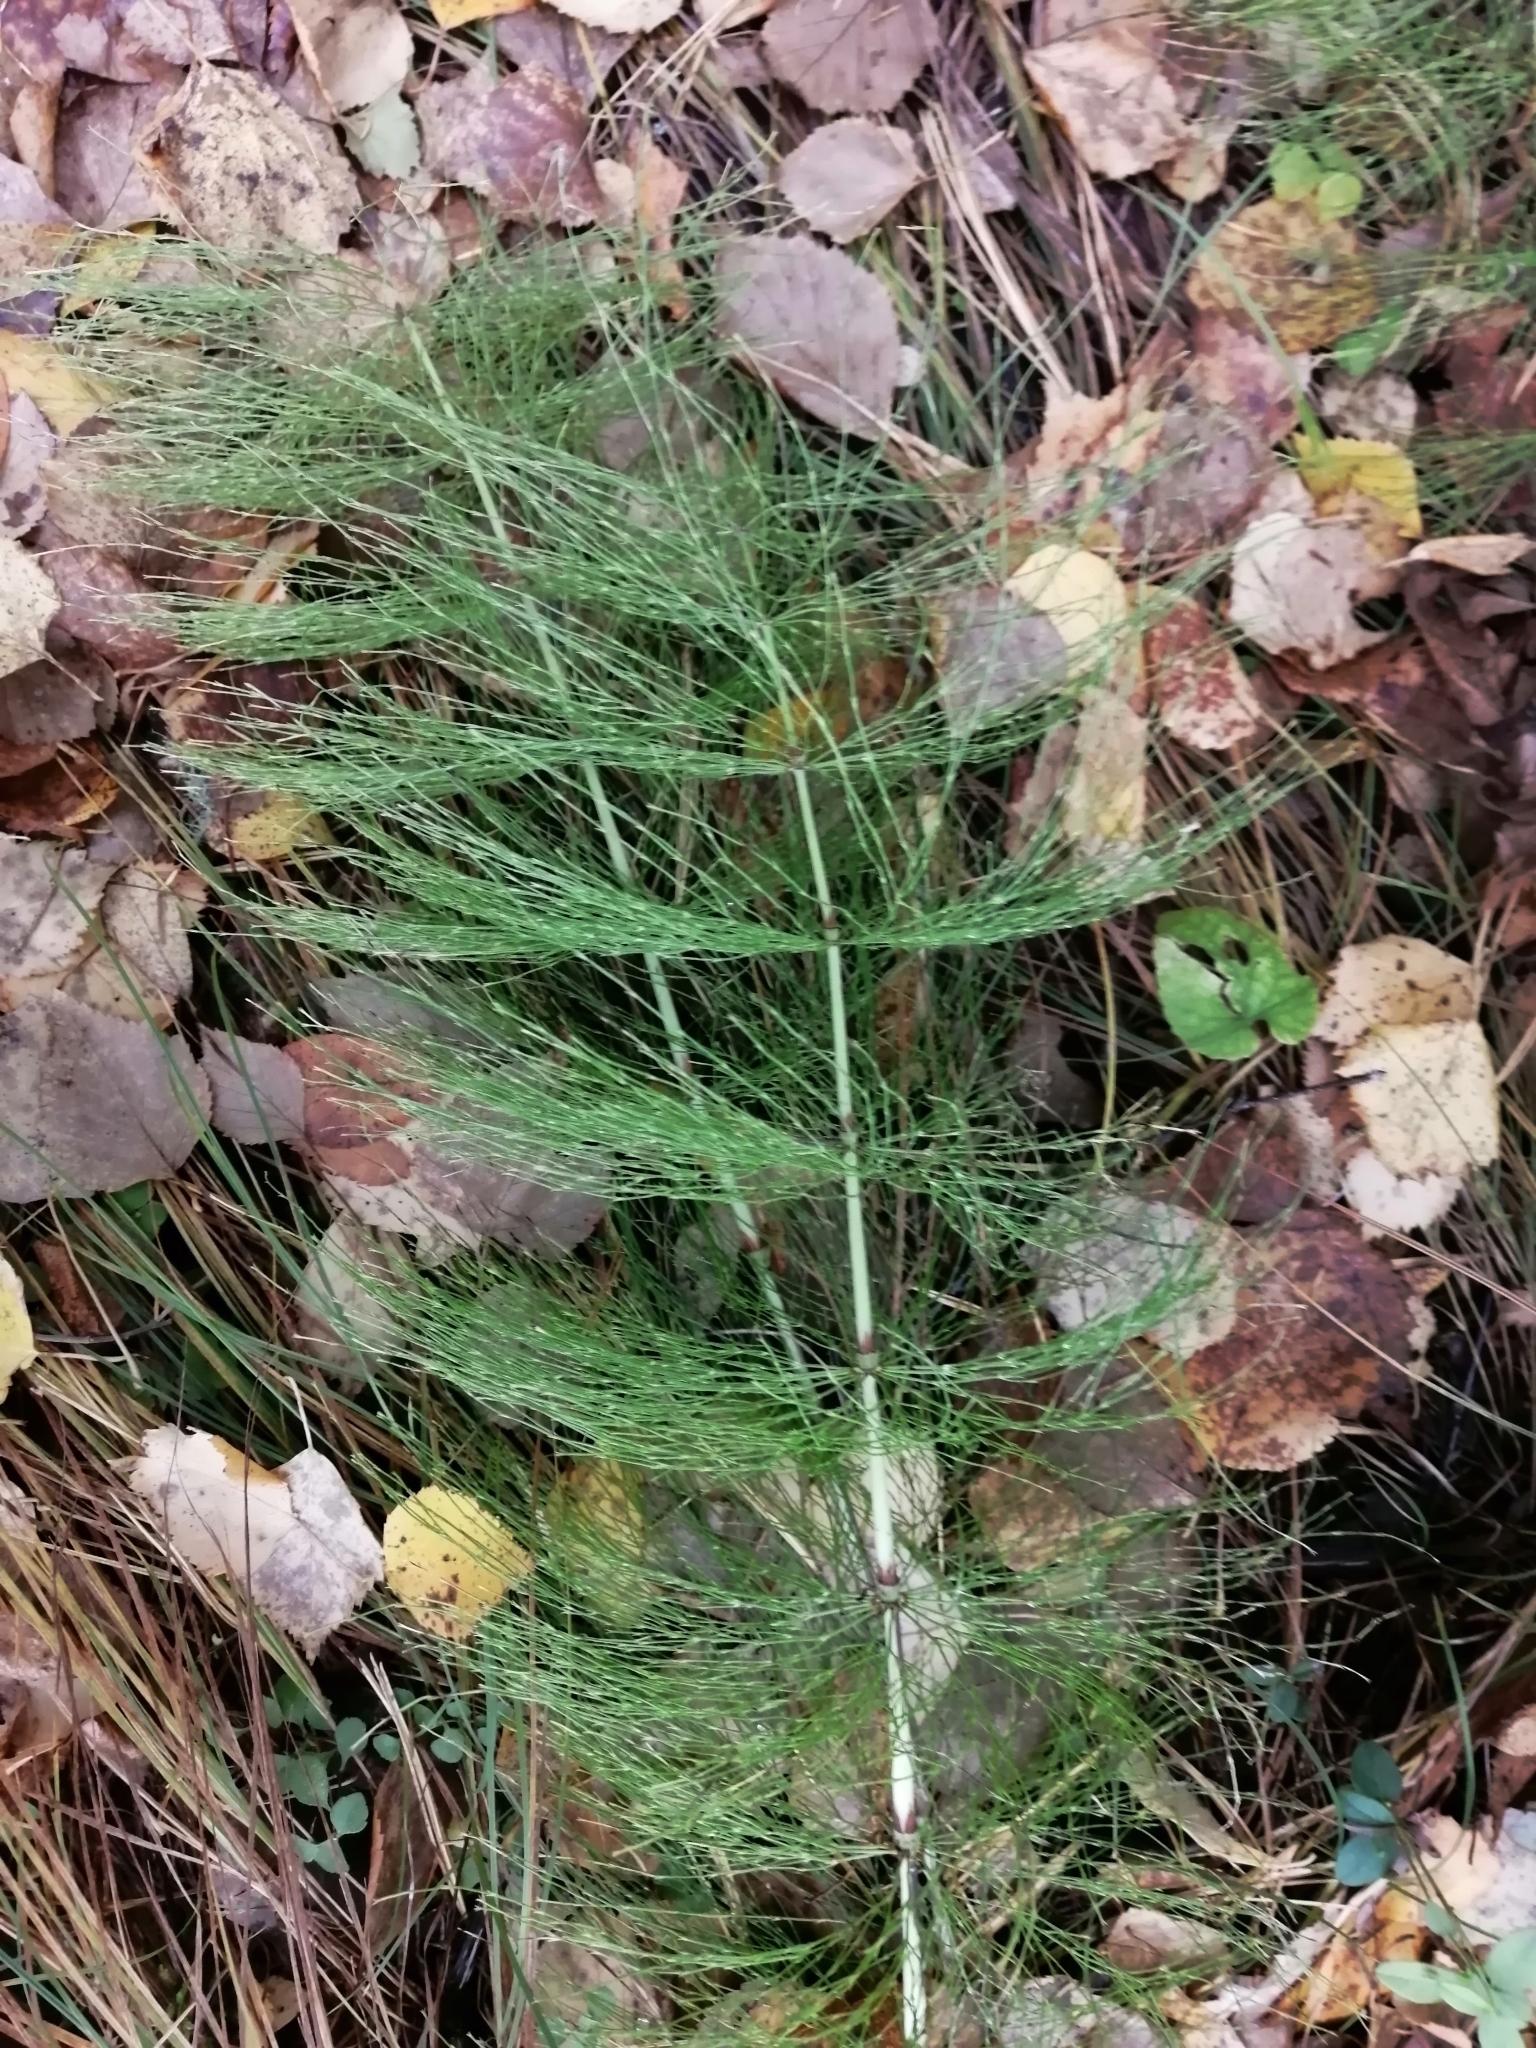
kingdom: Plantae
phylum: Tracheophyta
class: Polypodiopsida
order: Equisetales
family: Equisetaceae
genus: Equisetum
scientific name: Equisetum sylvaticum
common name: Wood horsetail
